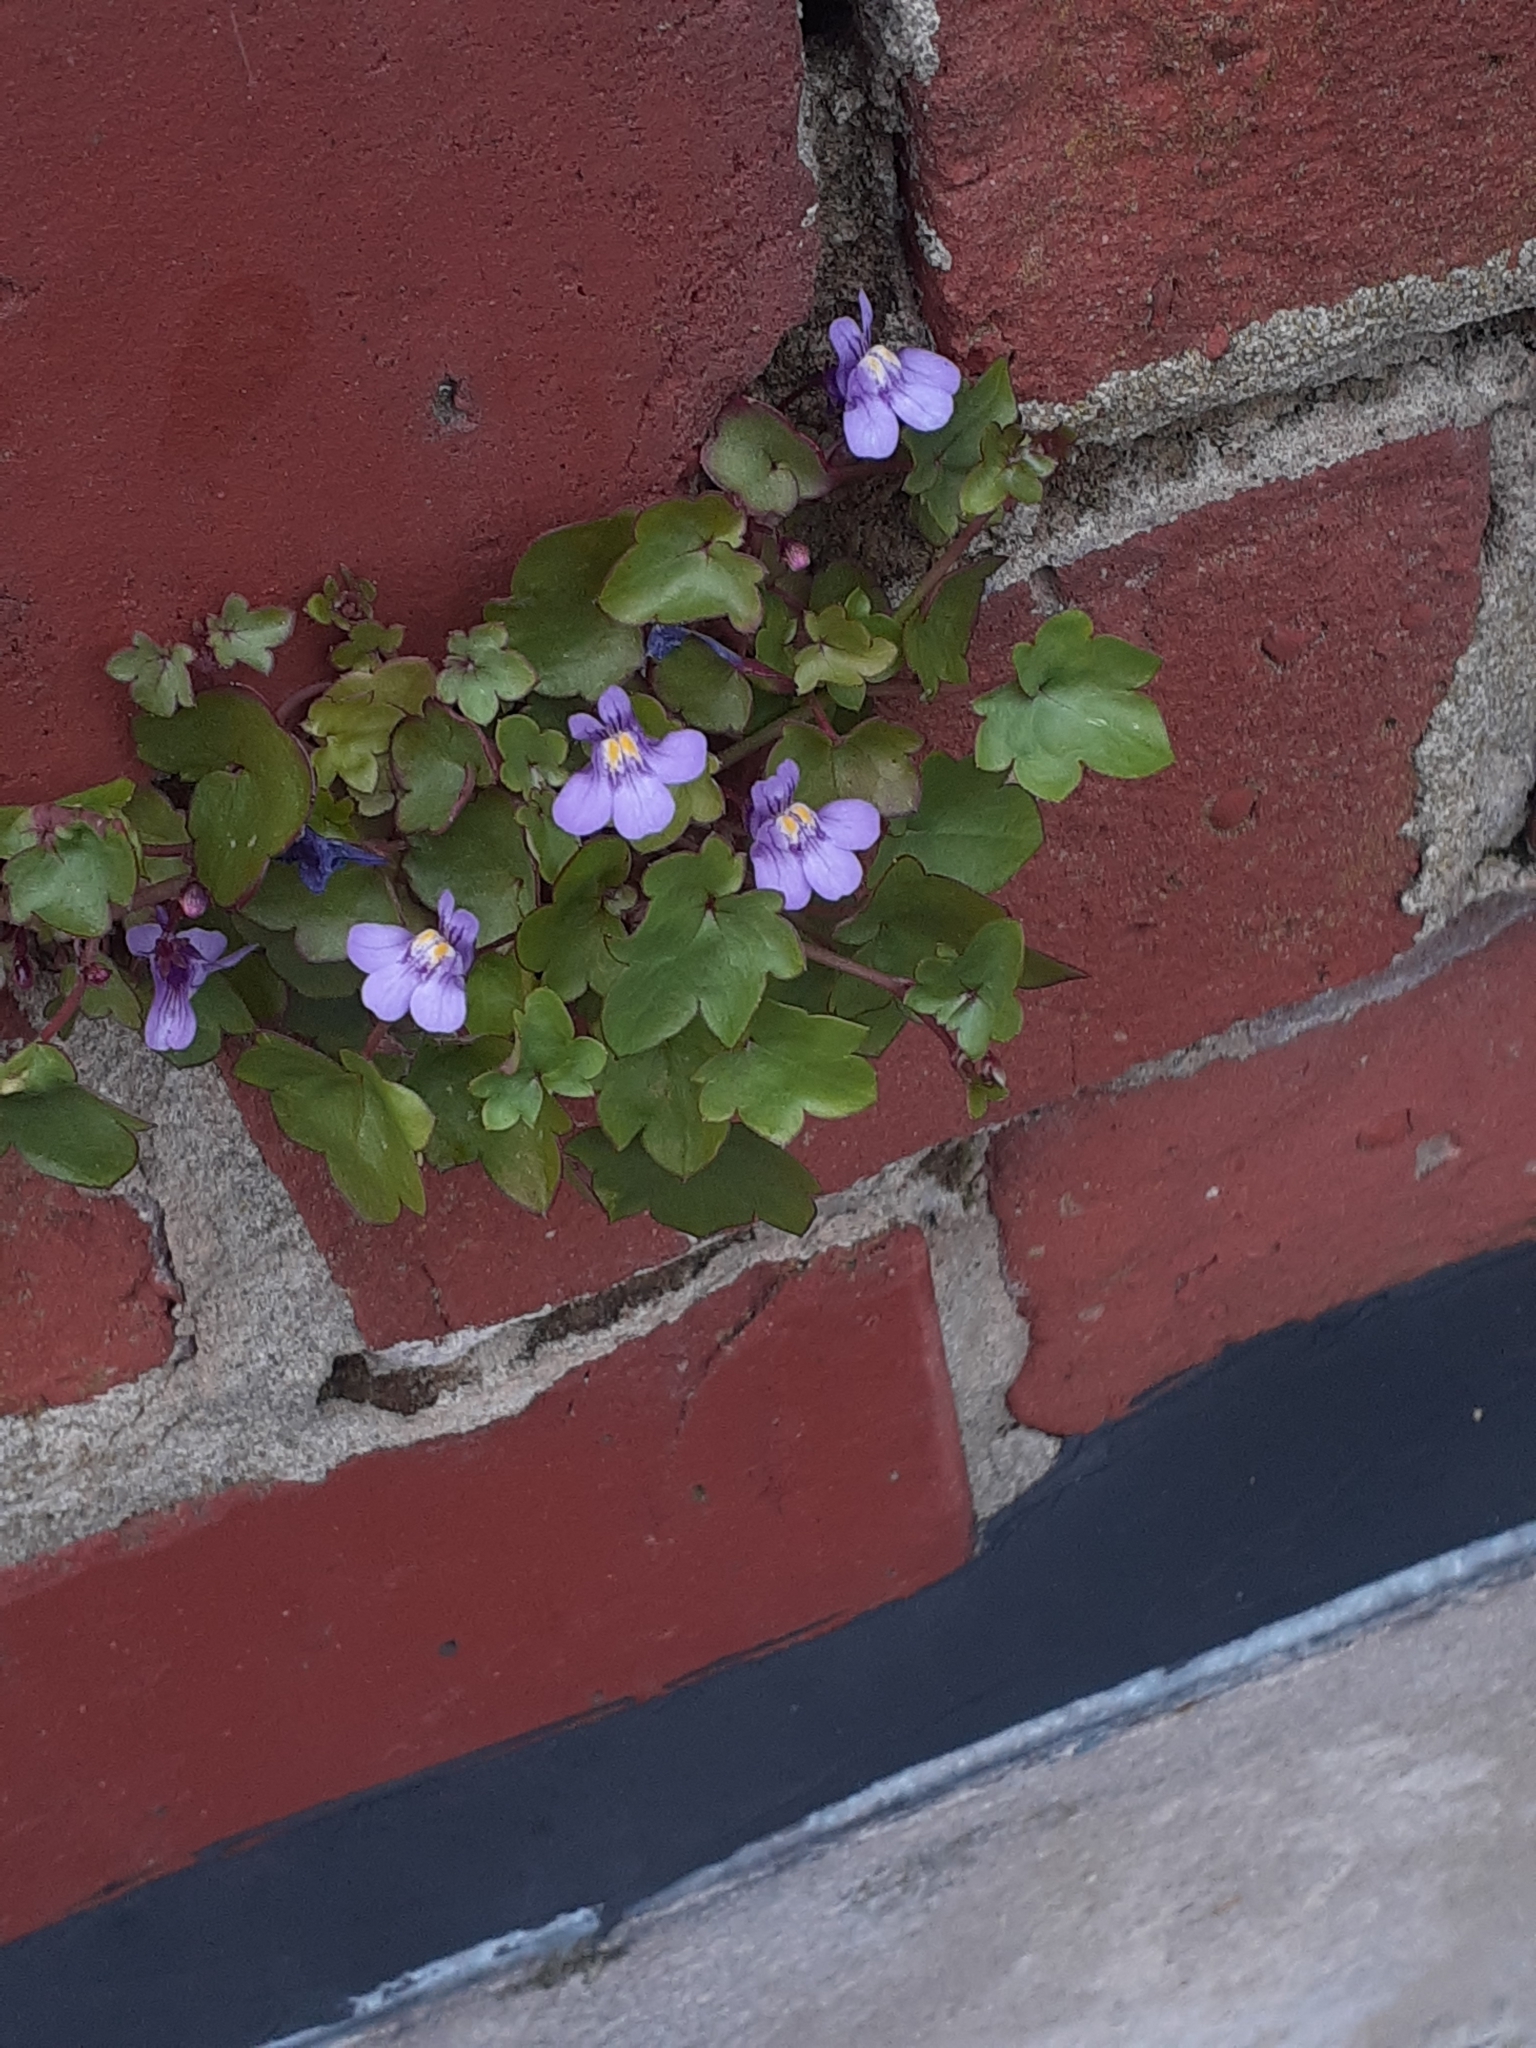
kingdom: Plantae
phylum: Tracheophyta
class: Magnoliopsida
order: Lamiales
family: Plantaginaceae
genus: Cymbalaria
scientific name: Cymbalaria muralis
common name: Ivy-leaved toadflax
